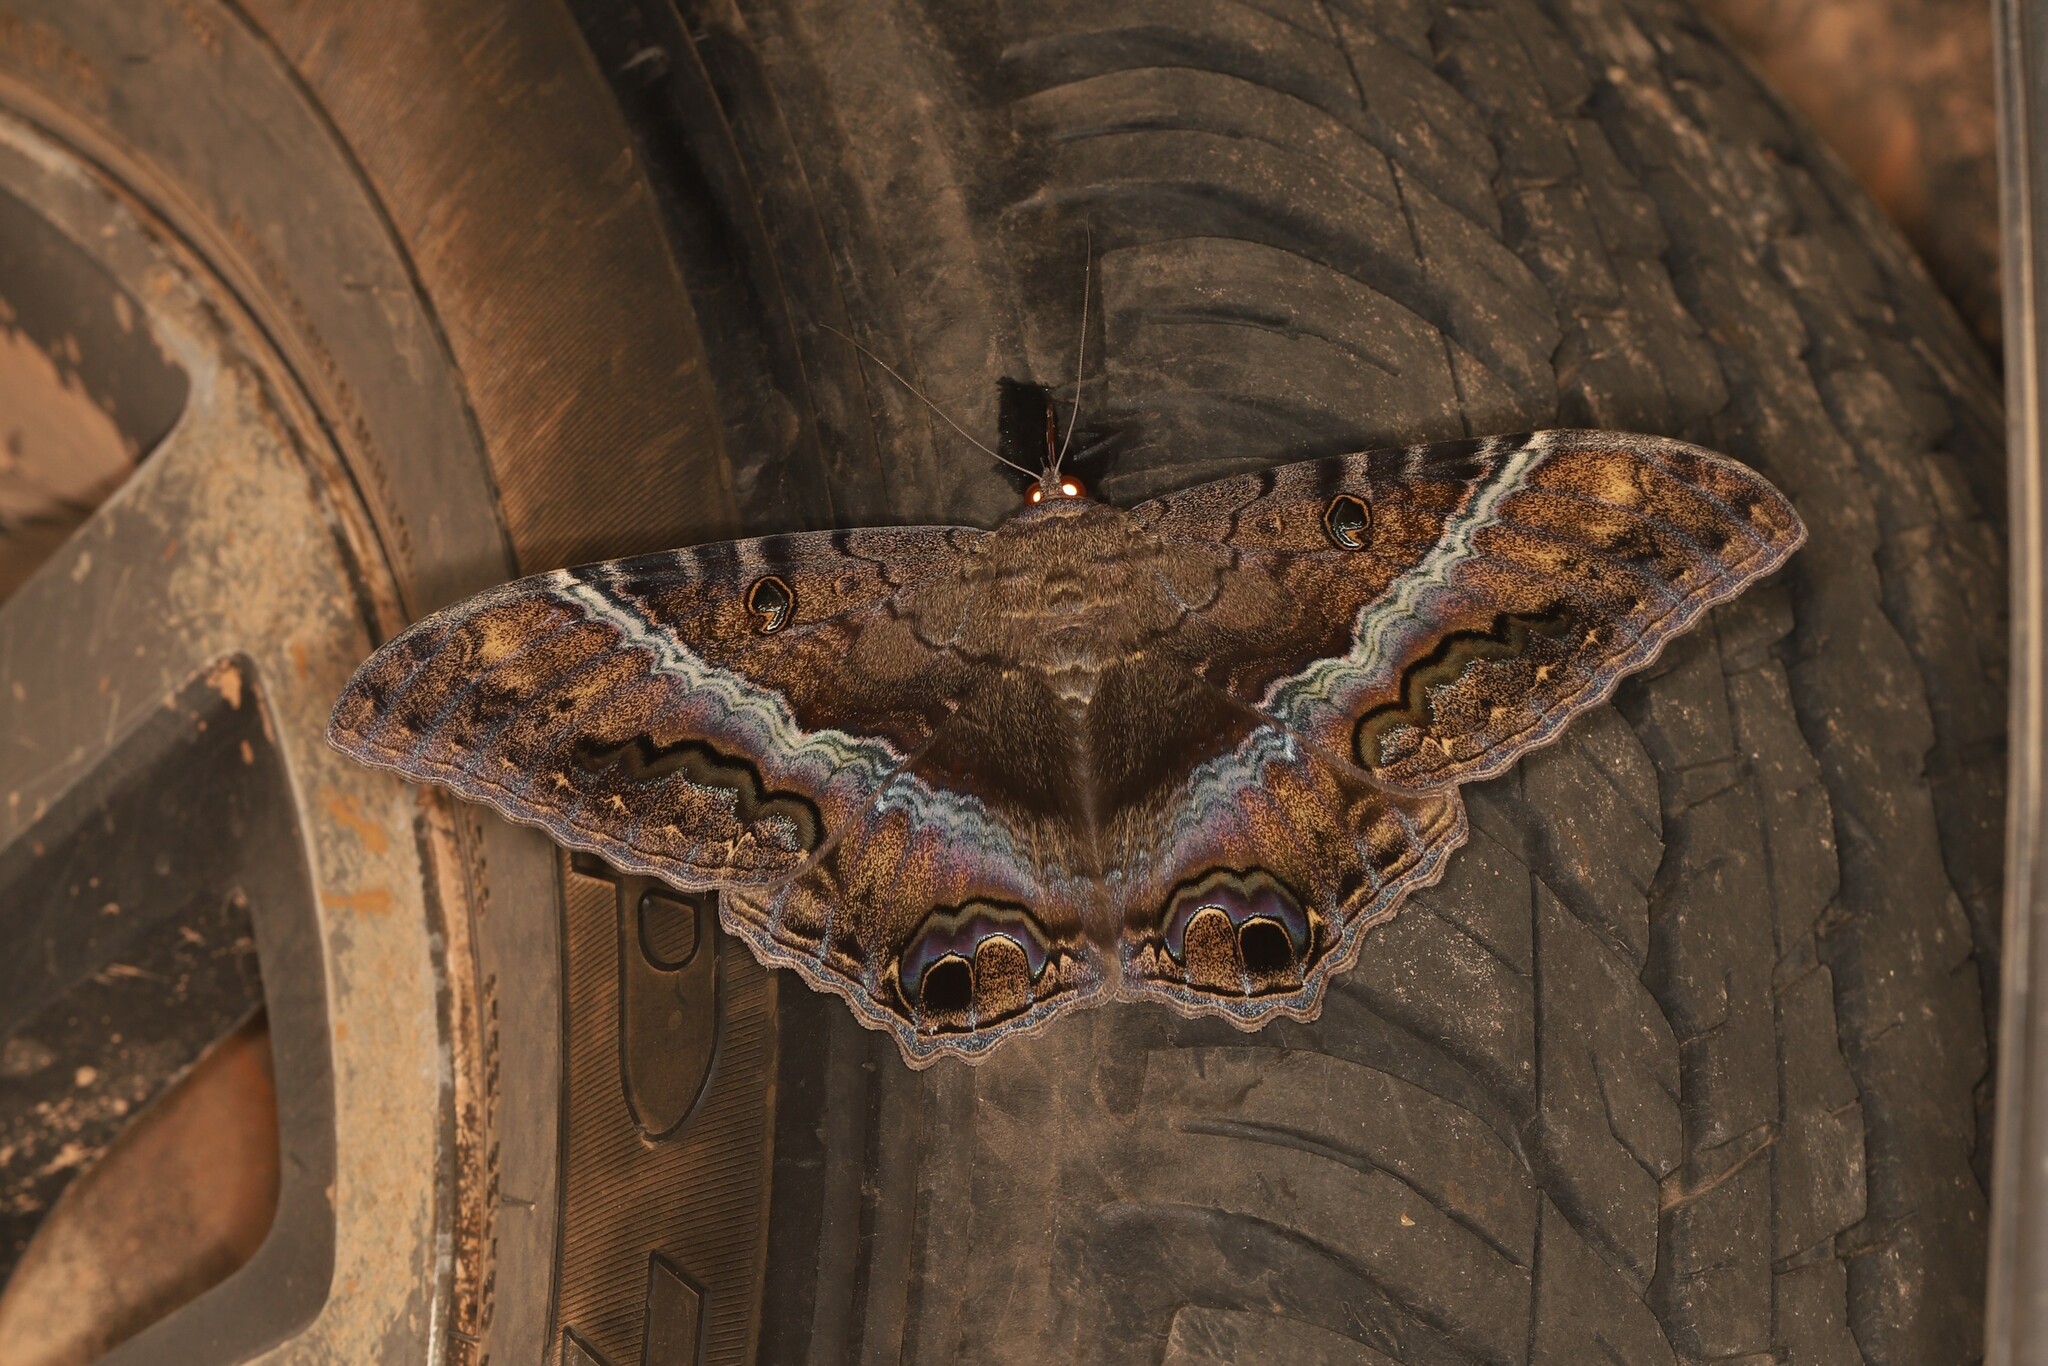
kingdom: Animalia
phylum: Arthropoda
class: Insecta
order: Lepidoptera
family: Erebidae
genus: Ascalapha
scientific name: Ascalapha odorata
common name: Black witch
